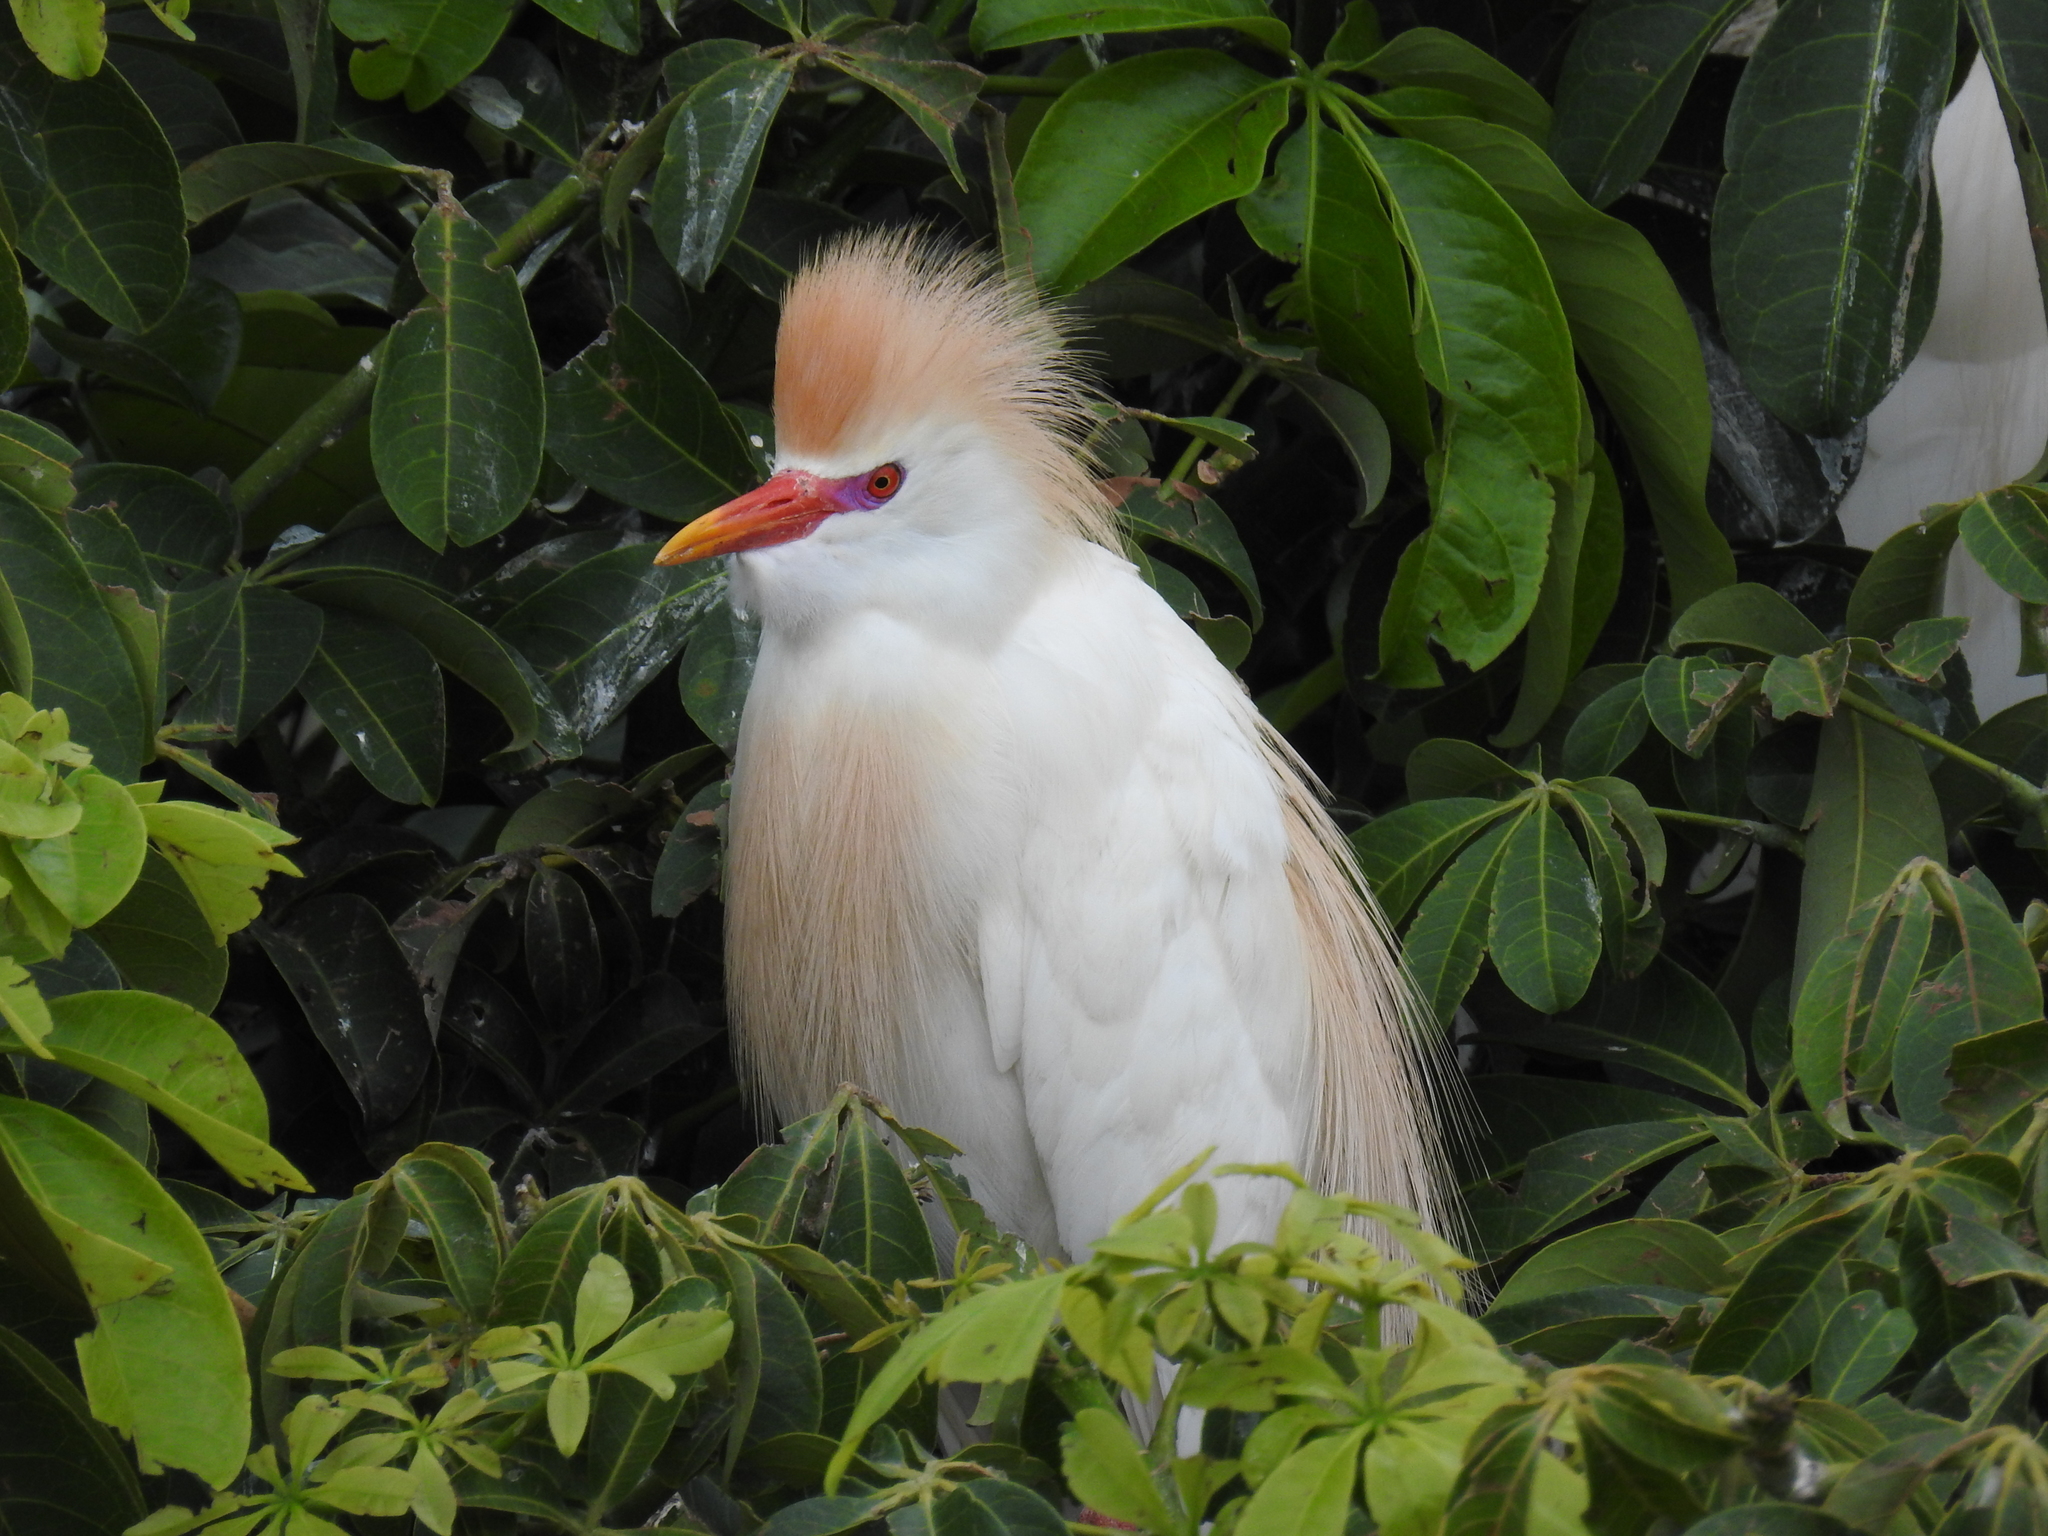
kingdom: Animalia
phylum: Chordata
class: Aves
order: Pelecaniformes
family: Ardeidae
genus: Bubulcus
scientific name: Bubulcus ibis
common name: Cattle egret
